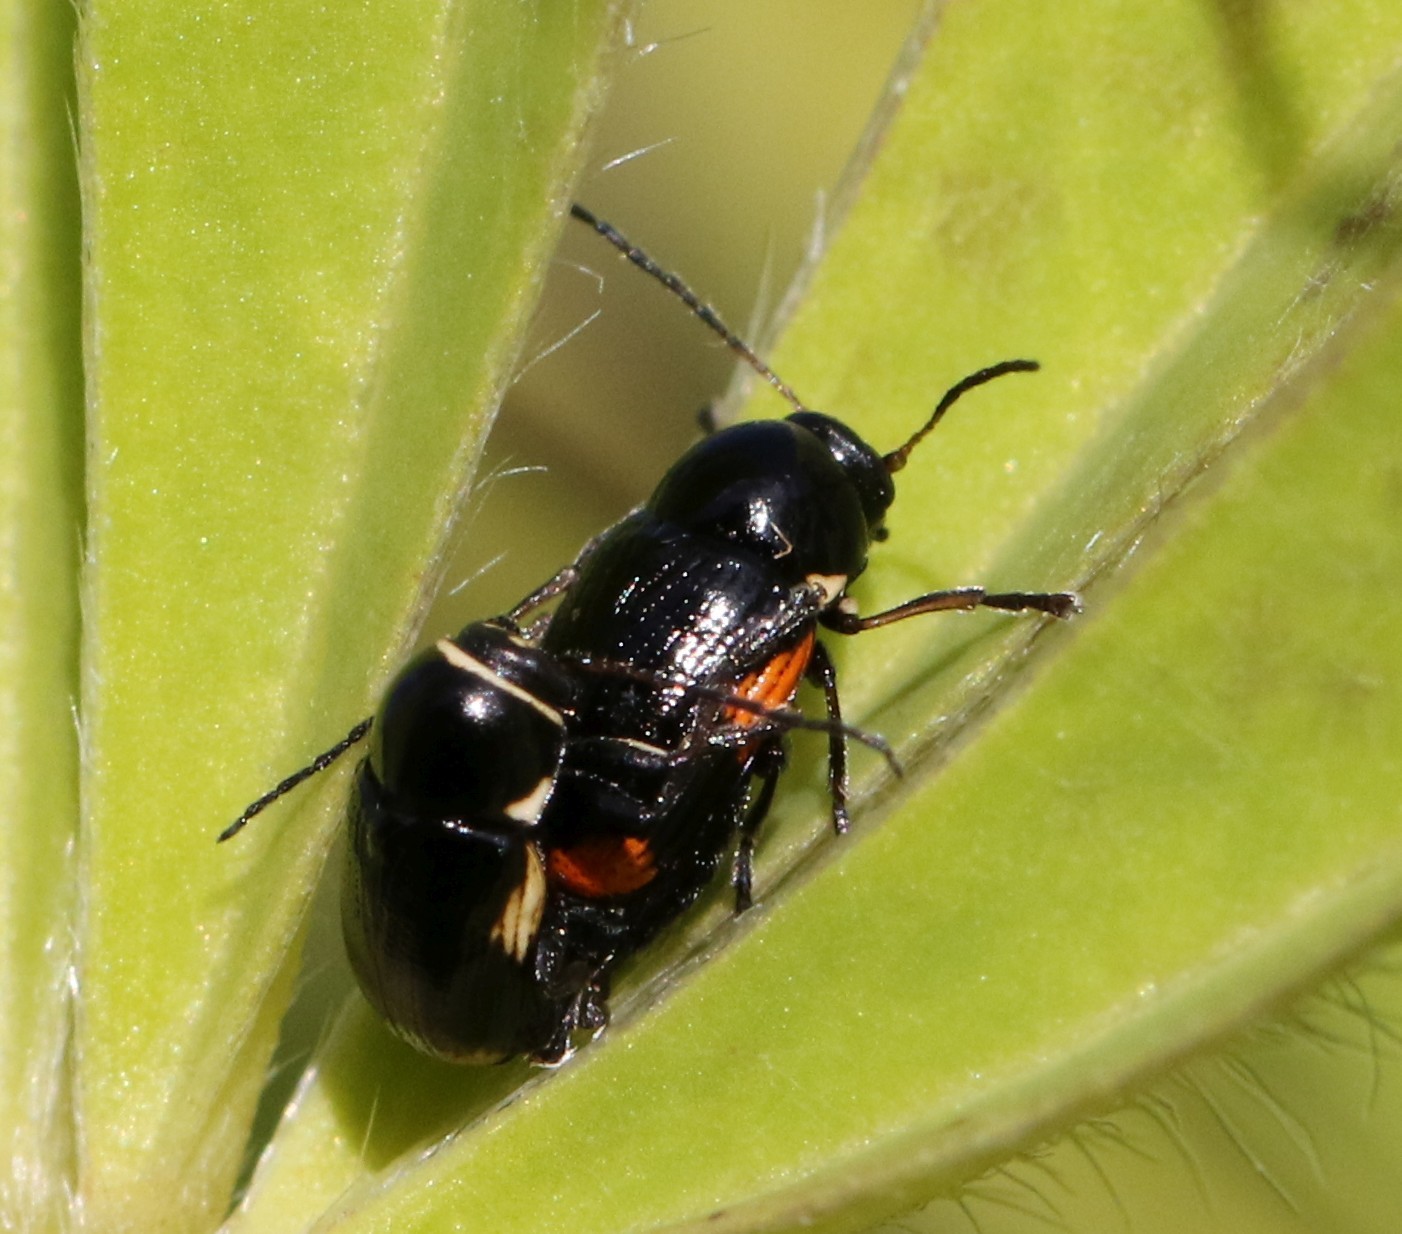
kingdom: Animalia
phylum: Arthropoda
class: Insecta
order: Coleoptera
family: Chrysomelidae
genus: Cryptocephalus
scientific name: Cryptocephalus moraei
